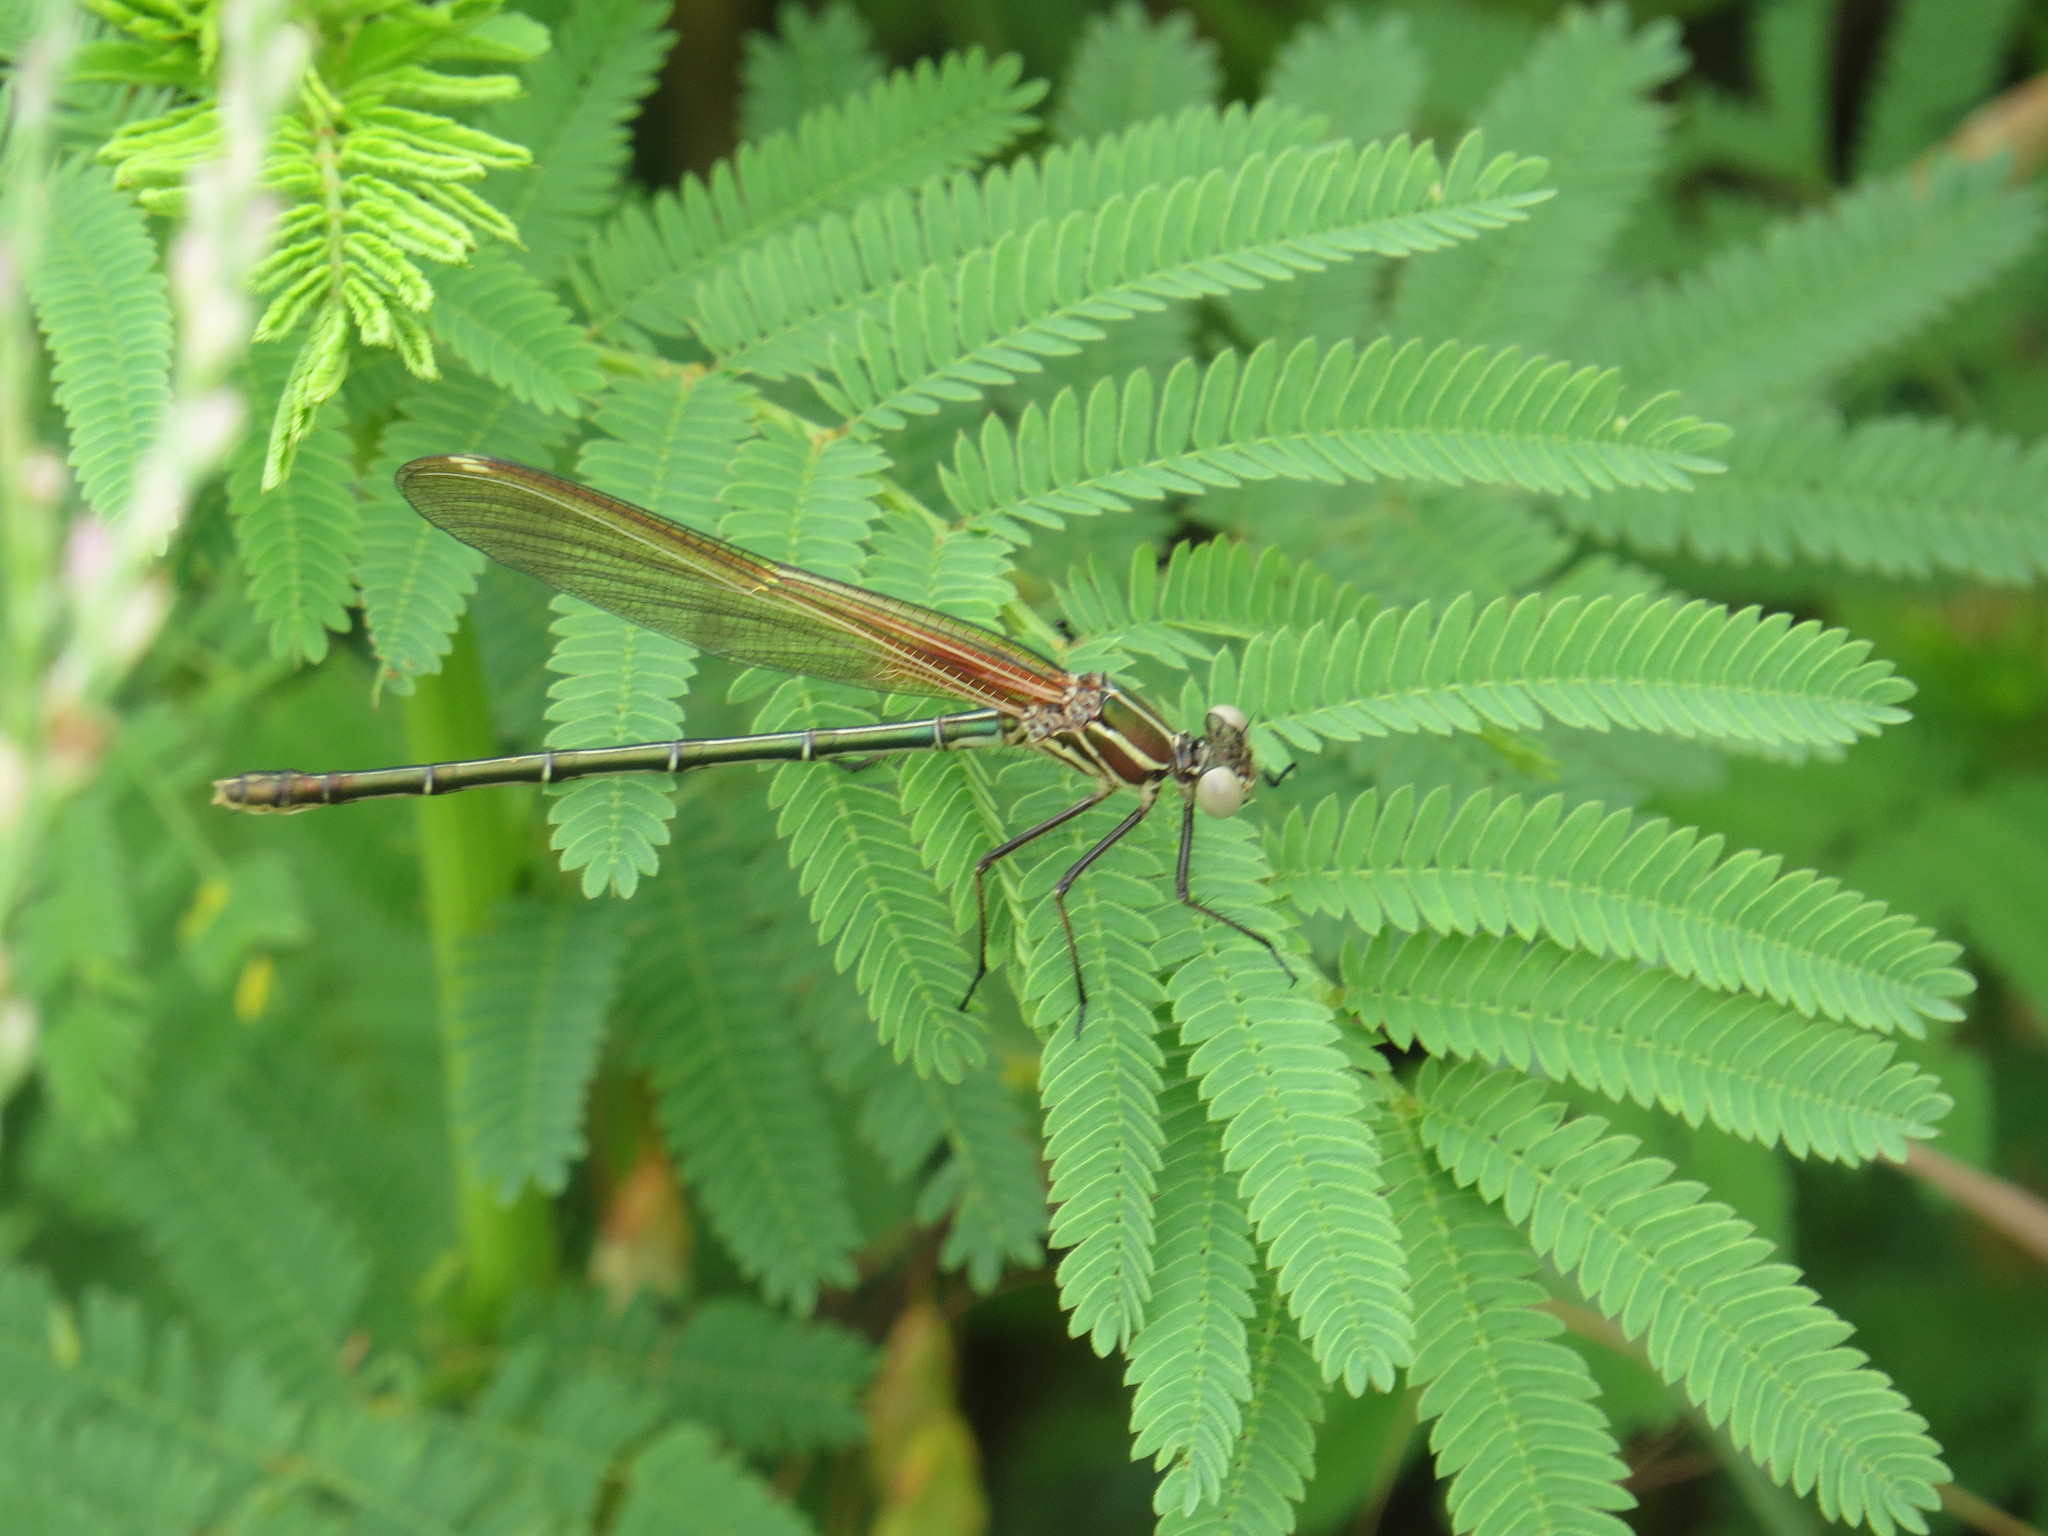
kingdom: Animalia
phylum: Arthropoda
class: Insecta
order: Odonata
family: Calopterygidae
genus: Hetaerina
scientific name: Hetaerina americana
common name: American rubyspot
